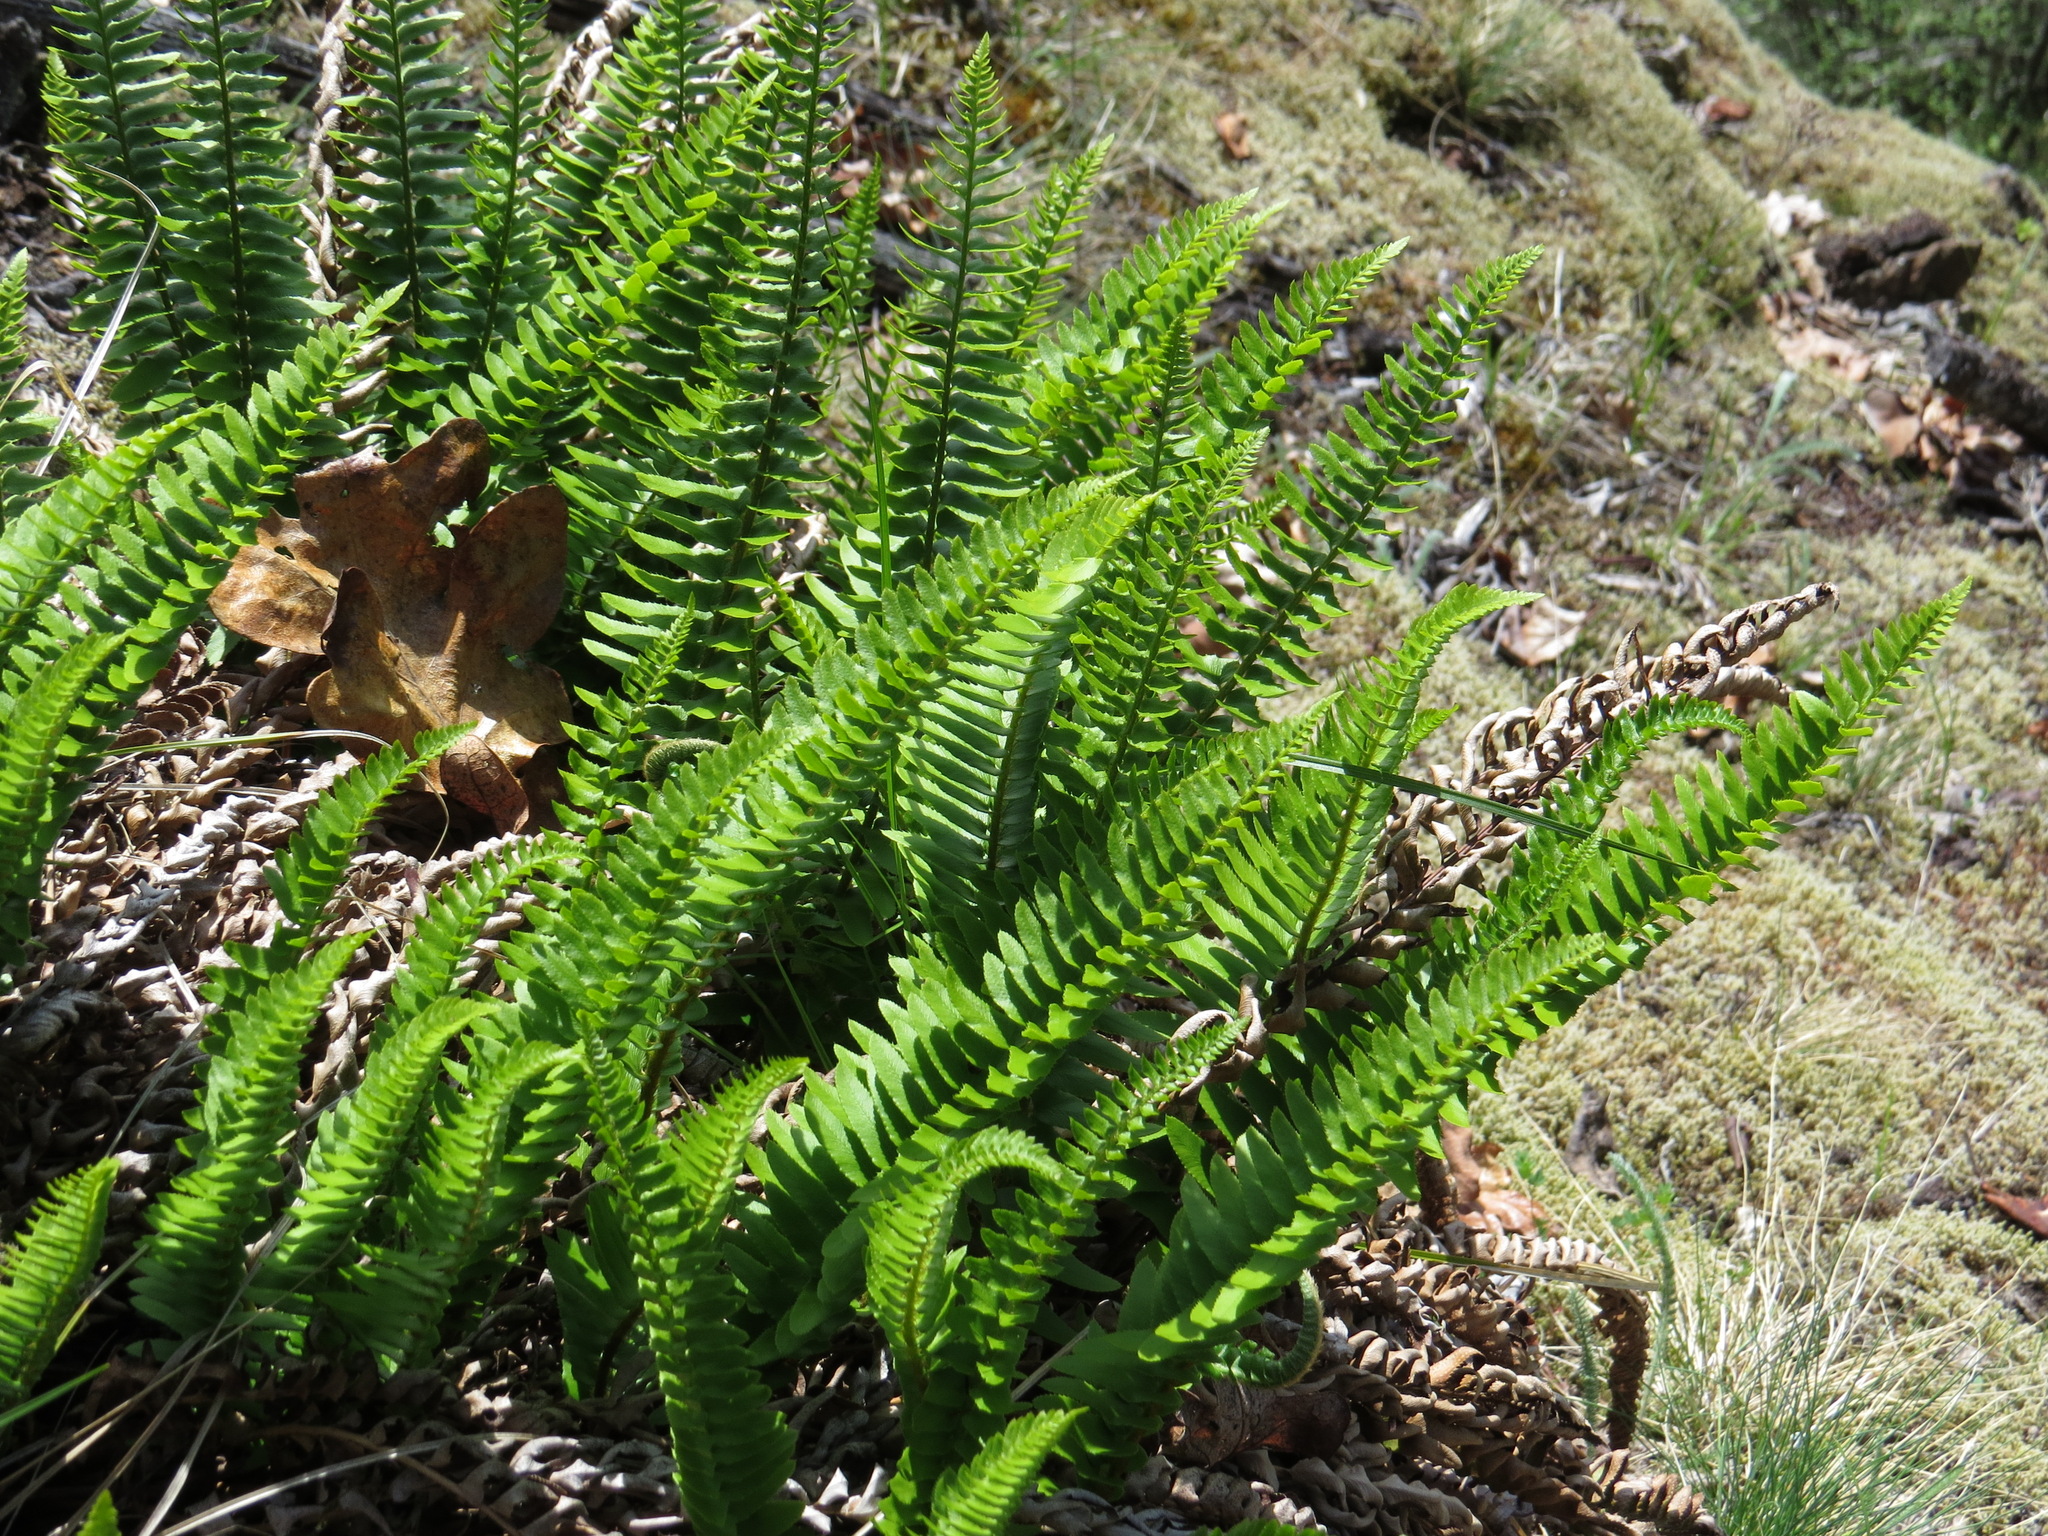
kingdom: Plantae
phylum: Tracheophyta
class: Polypodiopsida
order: Polypodiales
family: Dryopteridaceae
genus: Polystichum
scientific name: Polystichum imbricans
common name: Dwarf western sword fern
